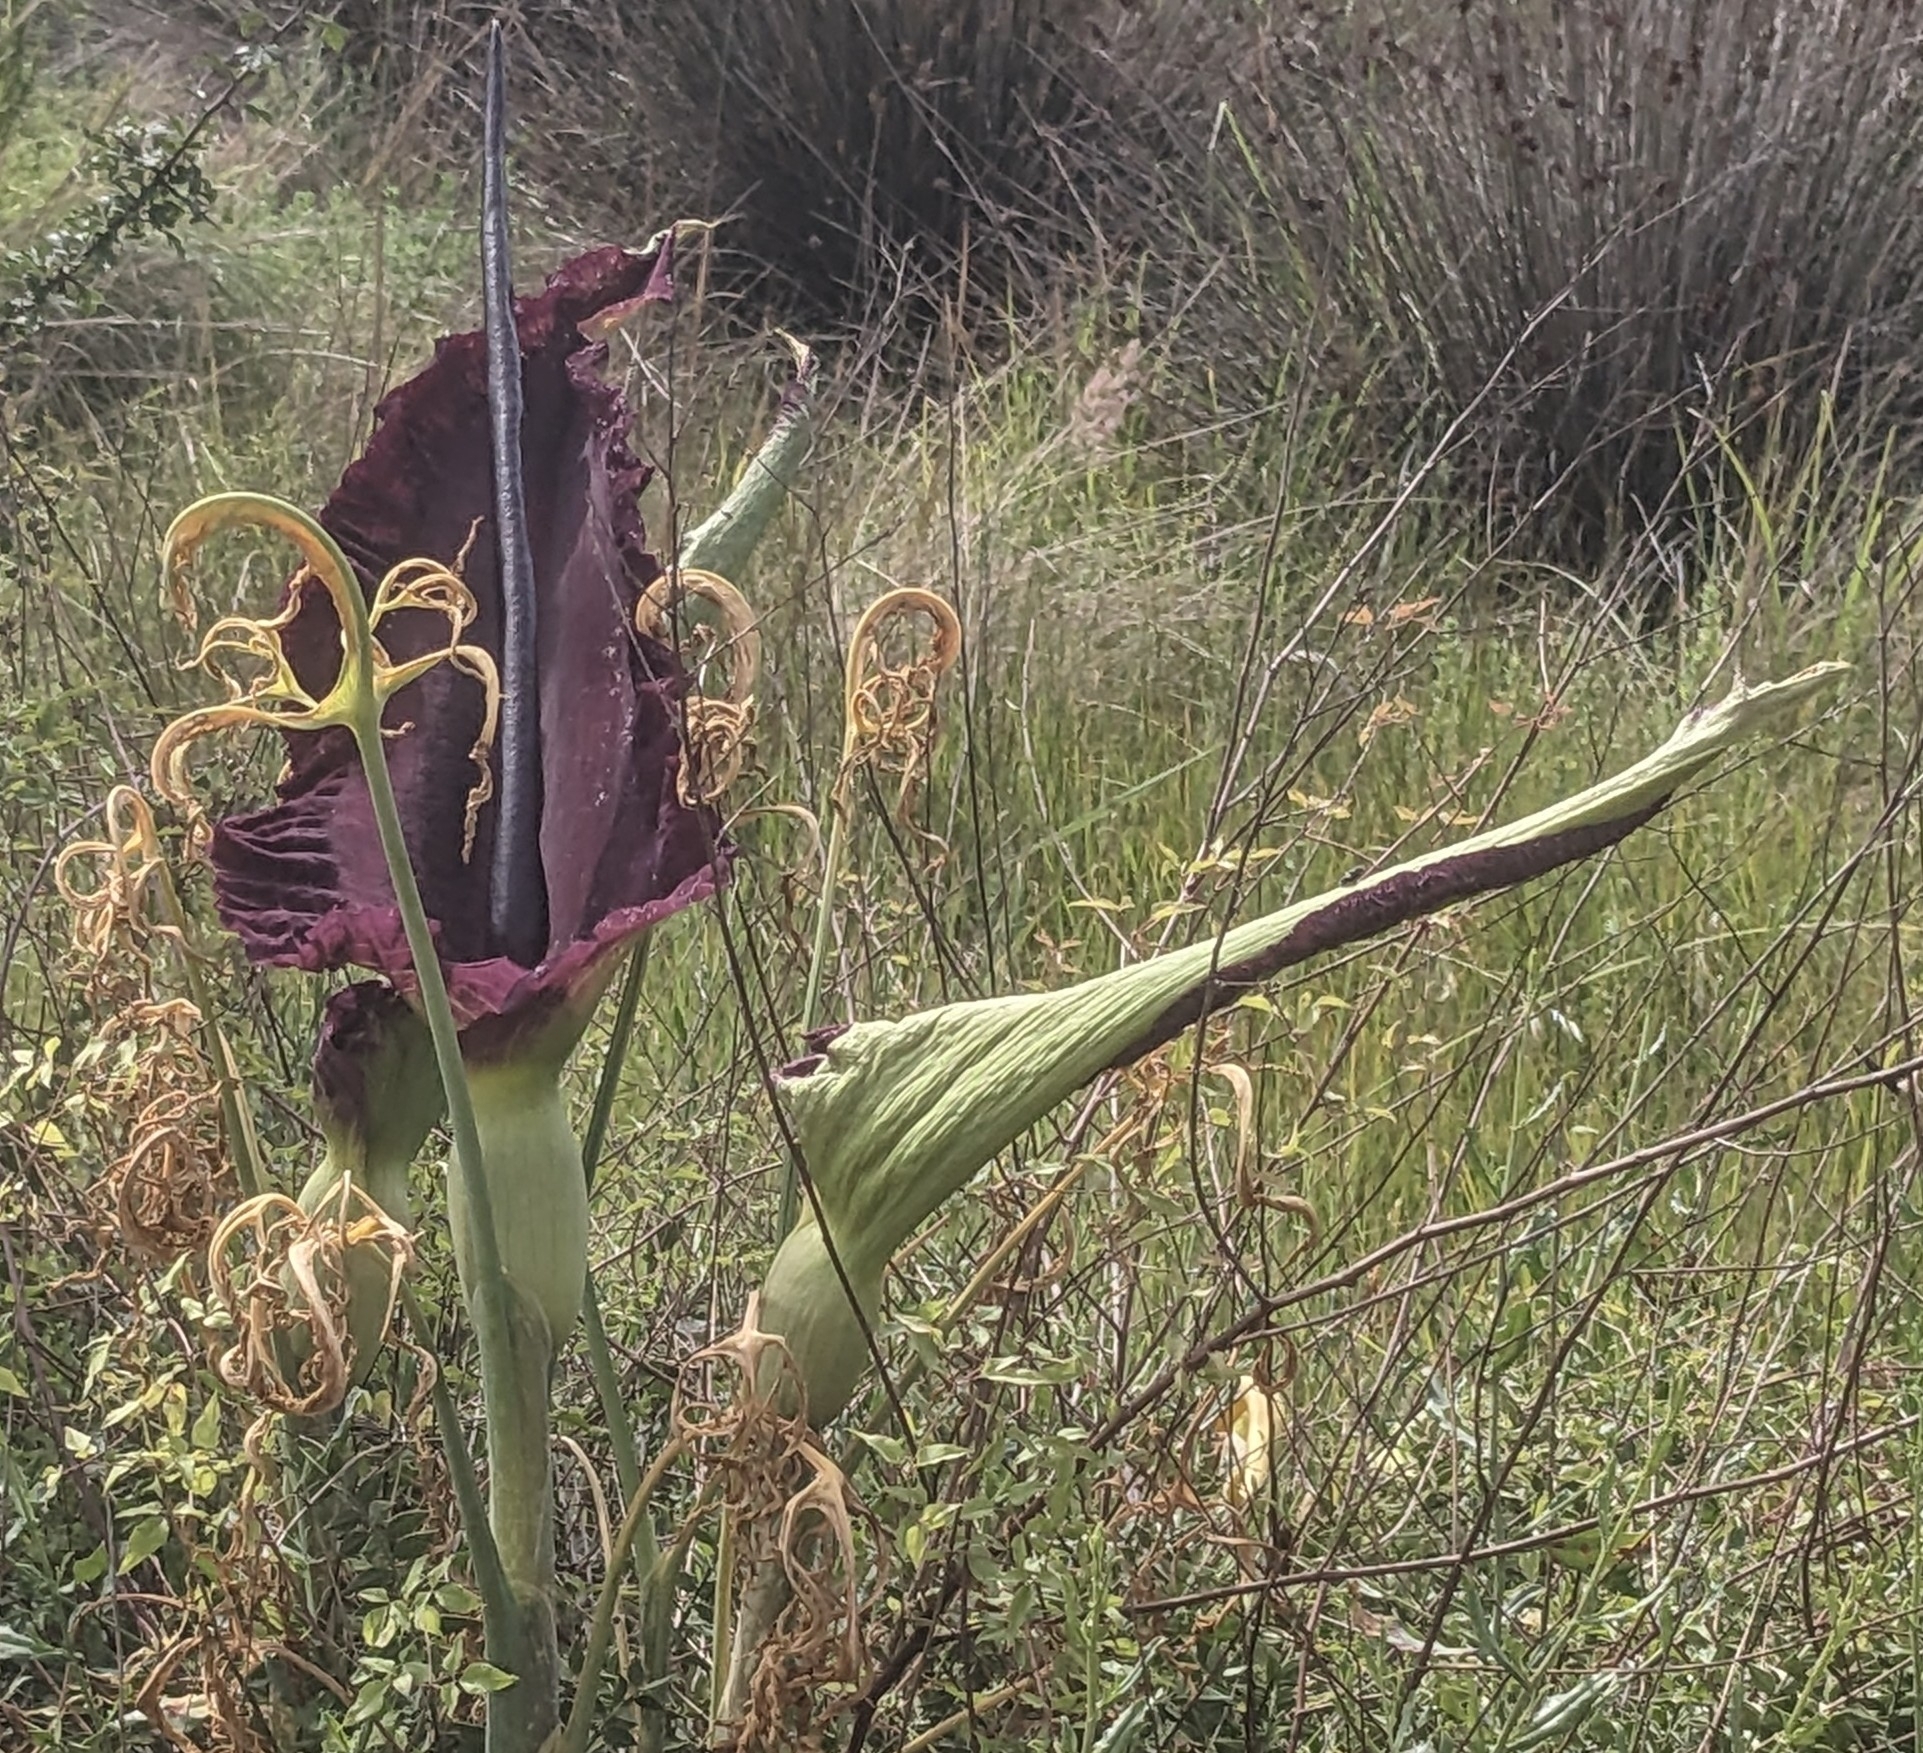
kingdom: Plantae
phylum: Tracheophyta
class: Liliopsida
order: Alismatales
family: Araceae
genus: Dracunculus
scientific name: Dracunculus vulgaris
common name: Dragon arum
